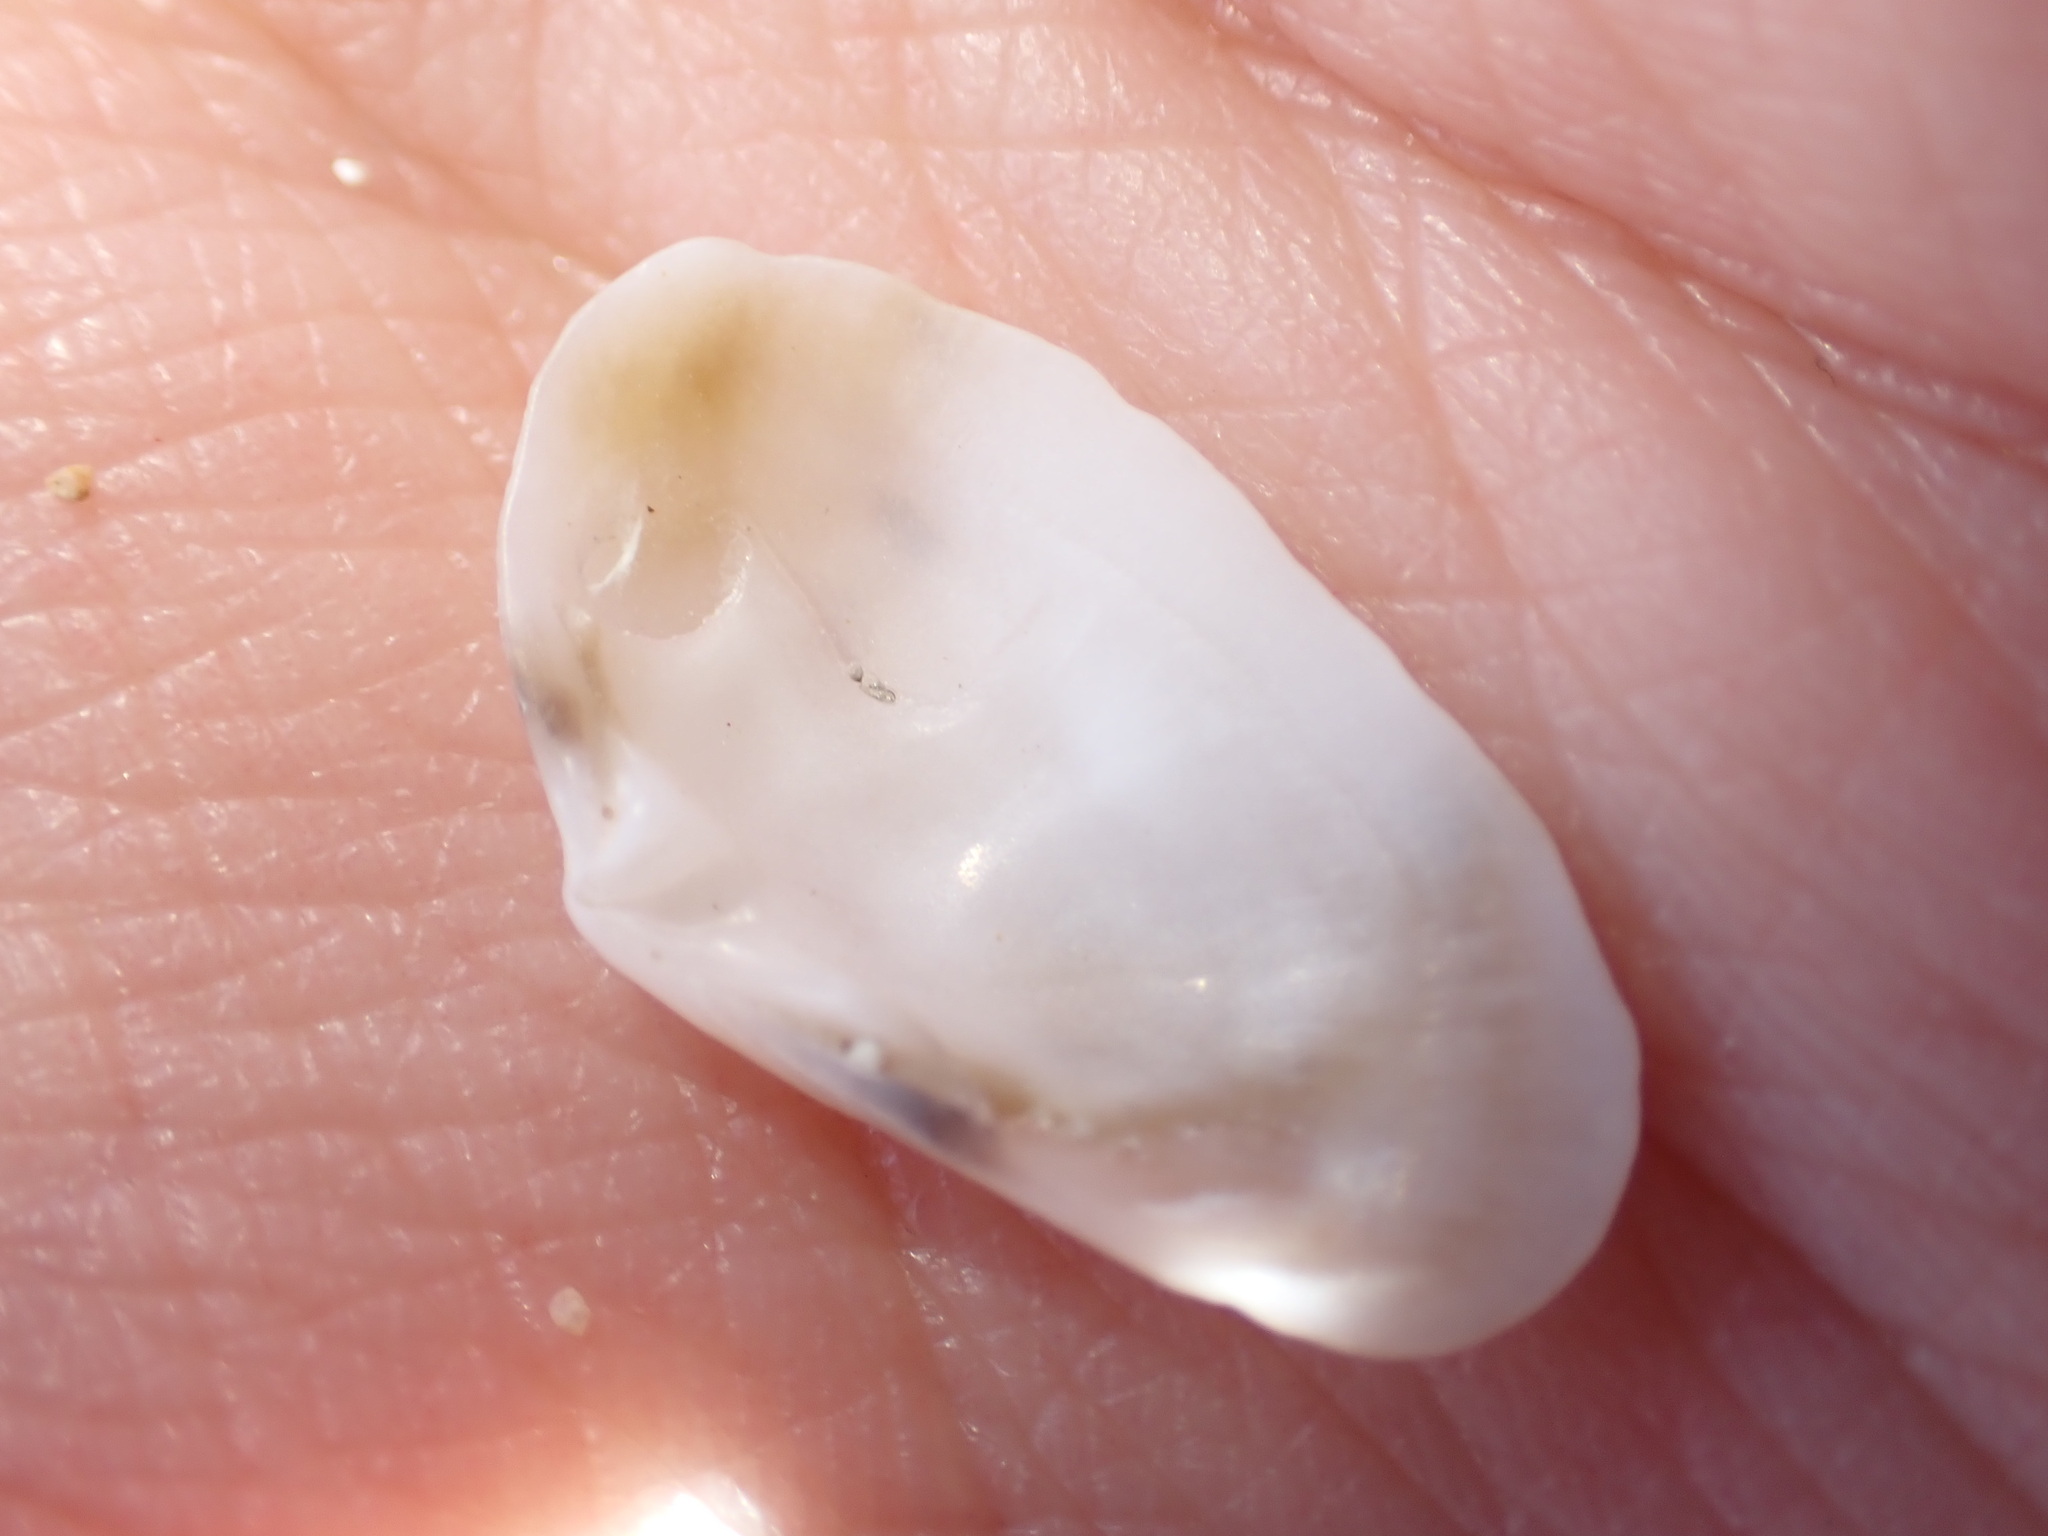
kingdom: Animalia
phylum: Mollusca
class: Bivalvia
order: Venerida
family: Mesodesmatidae
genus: Donacilla
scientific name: Donacilla cornea
